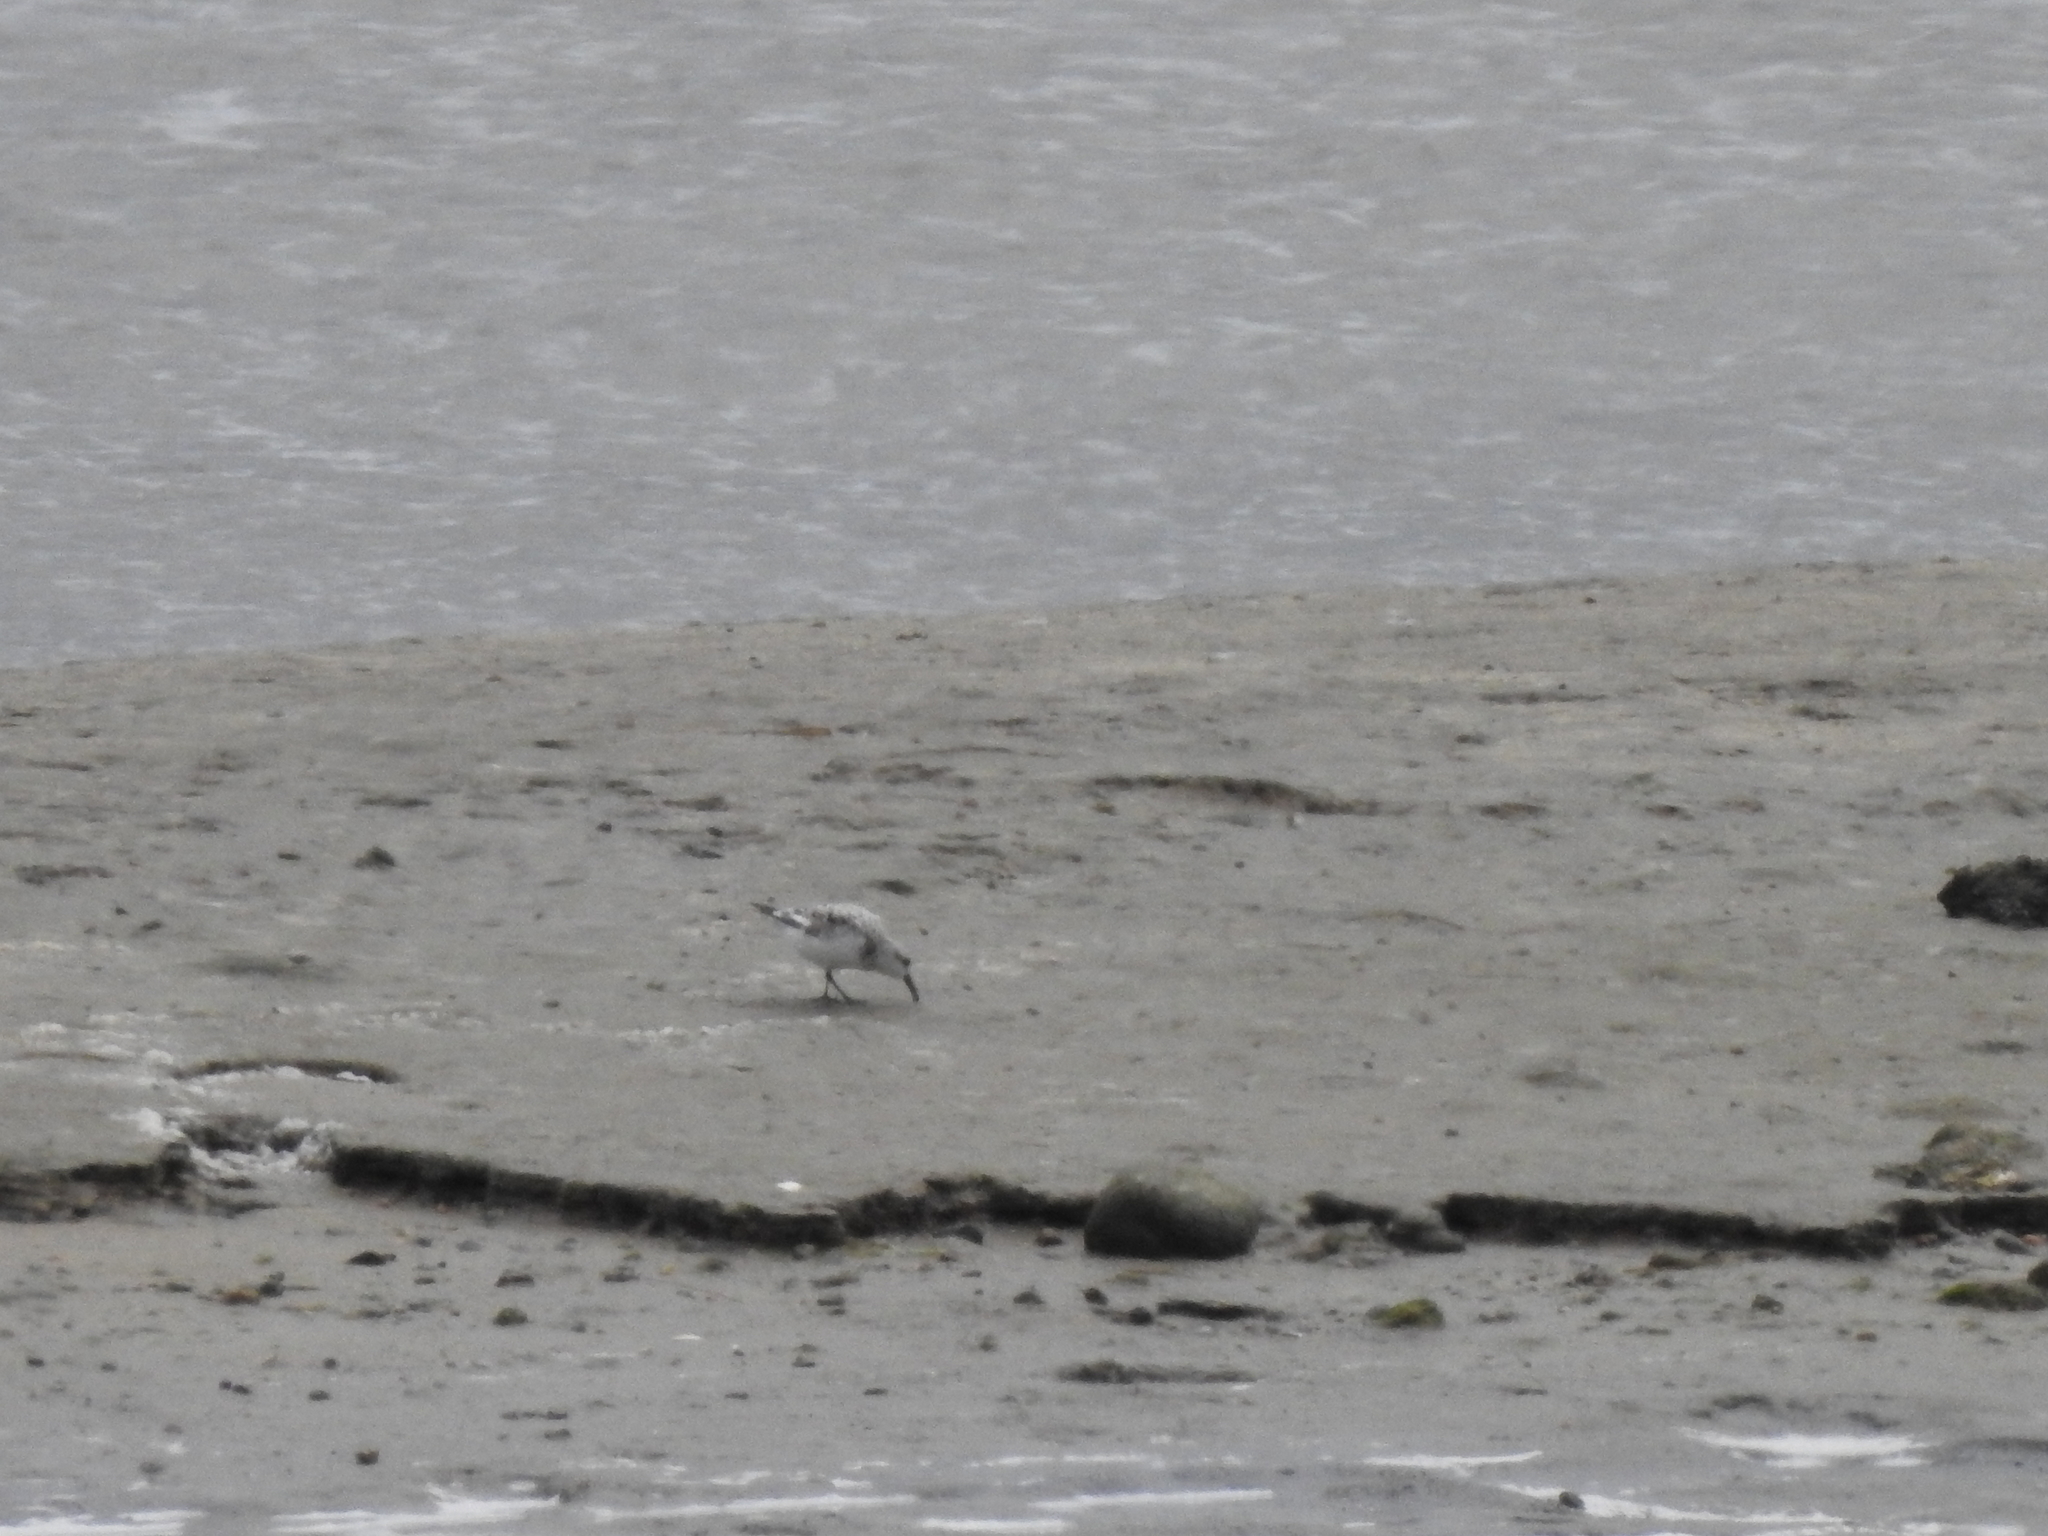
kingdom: Animalia
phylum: Chordata
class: Aves
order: Charadriiformes
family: Scolopacidae
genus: Calidris
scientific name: Calidris alba
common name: Sanderling
